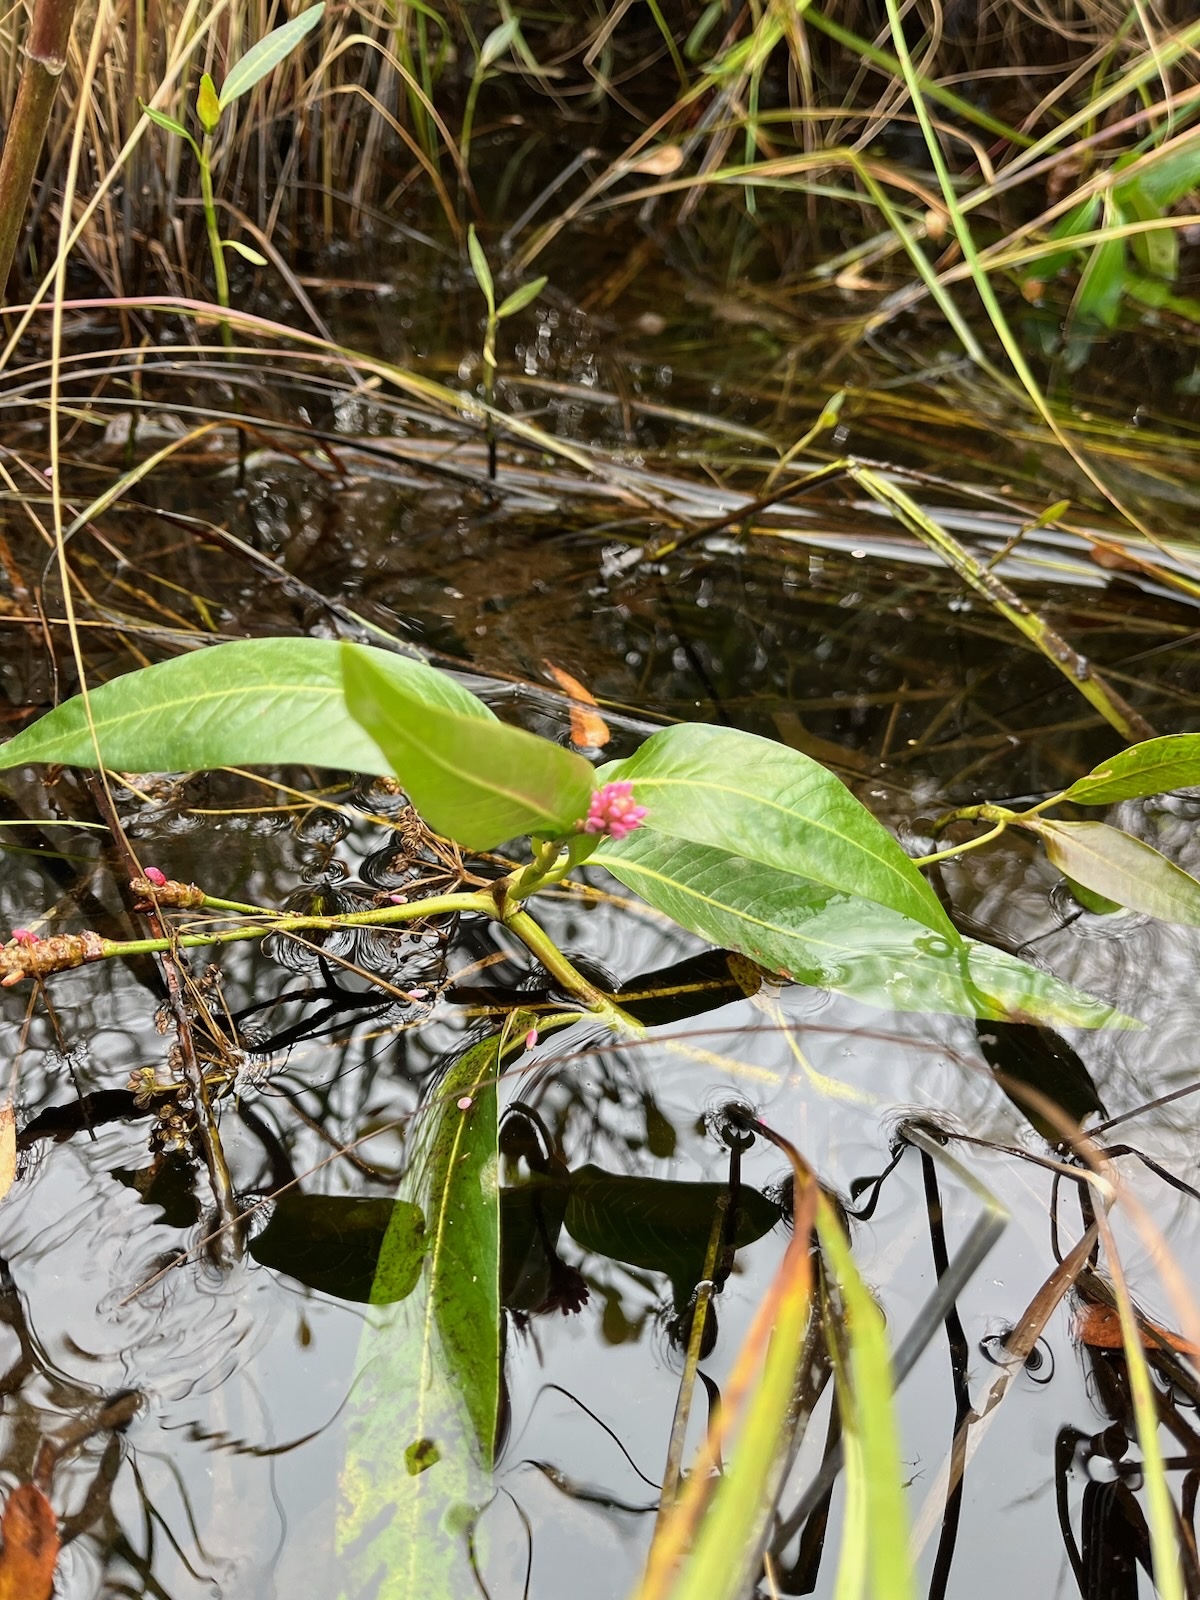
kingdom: Plantae
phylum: Tracheophyta
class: Magnoliopsida
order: Caryophyllales
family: Polygonaceae
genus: Persicaria
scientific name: Persicaria amphibia
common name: Amphibious bistort
